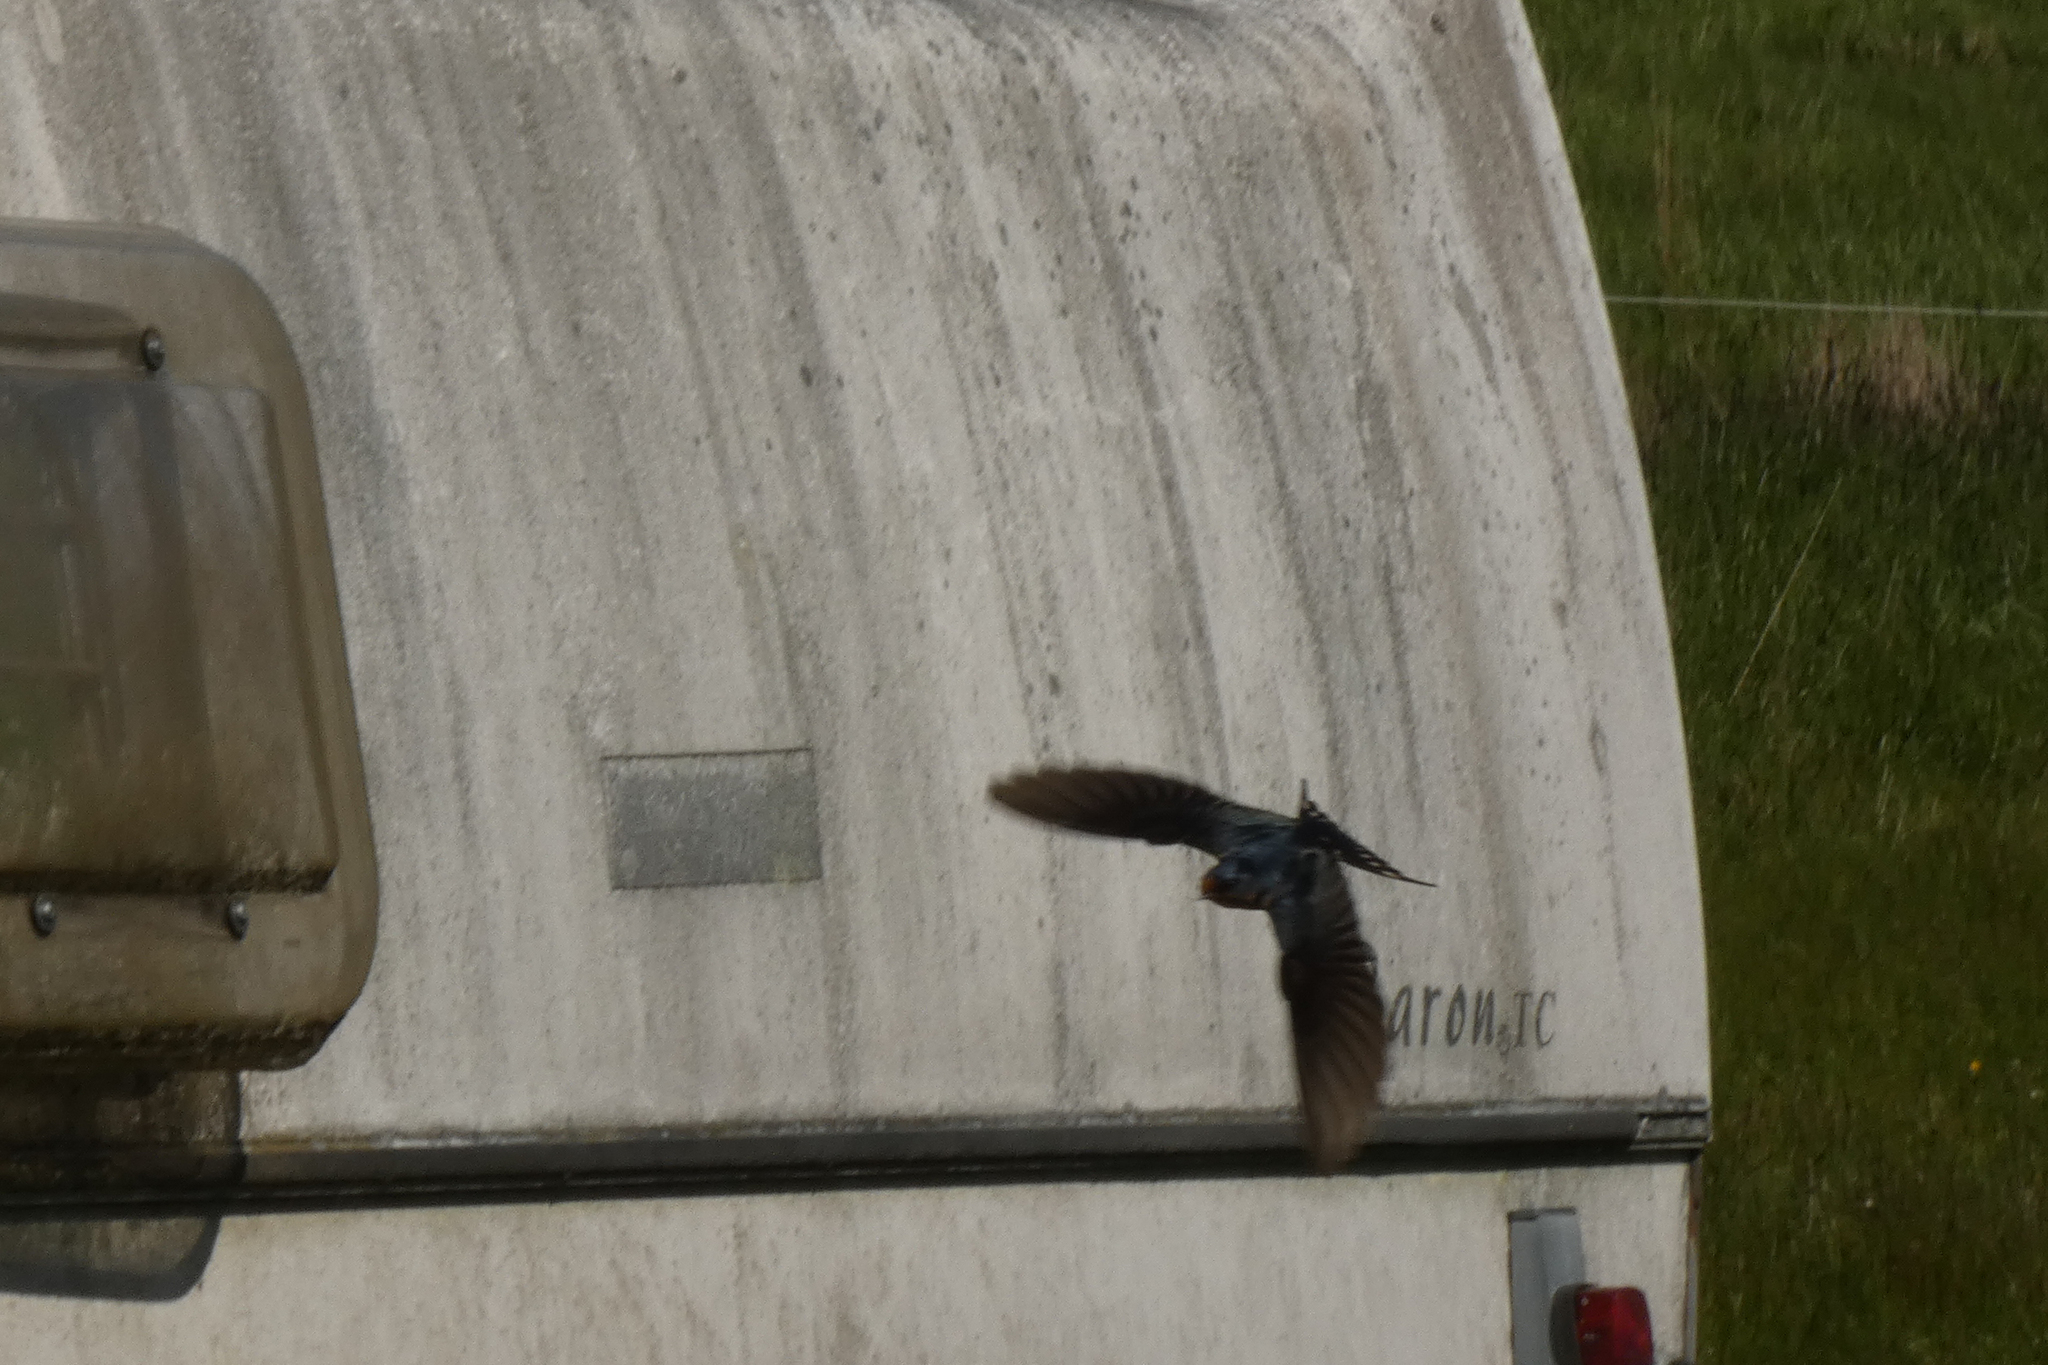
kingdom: Animalia
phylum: Chordata
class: Aves
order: Passeriformes
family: Hirundinidae
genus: Hirundo
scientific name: Hirundo rustica
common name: Barn swallow
